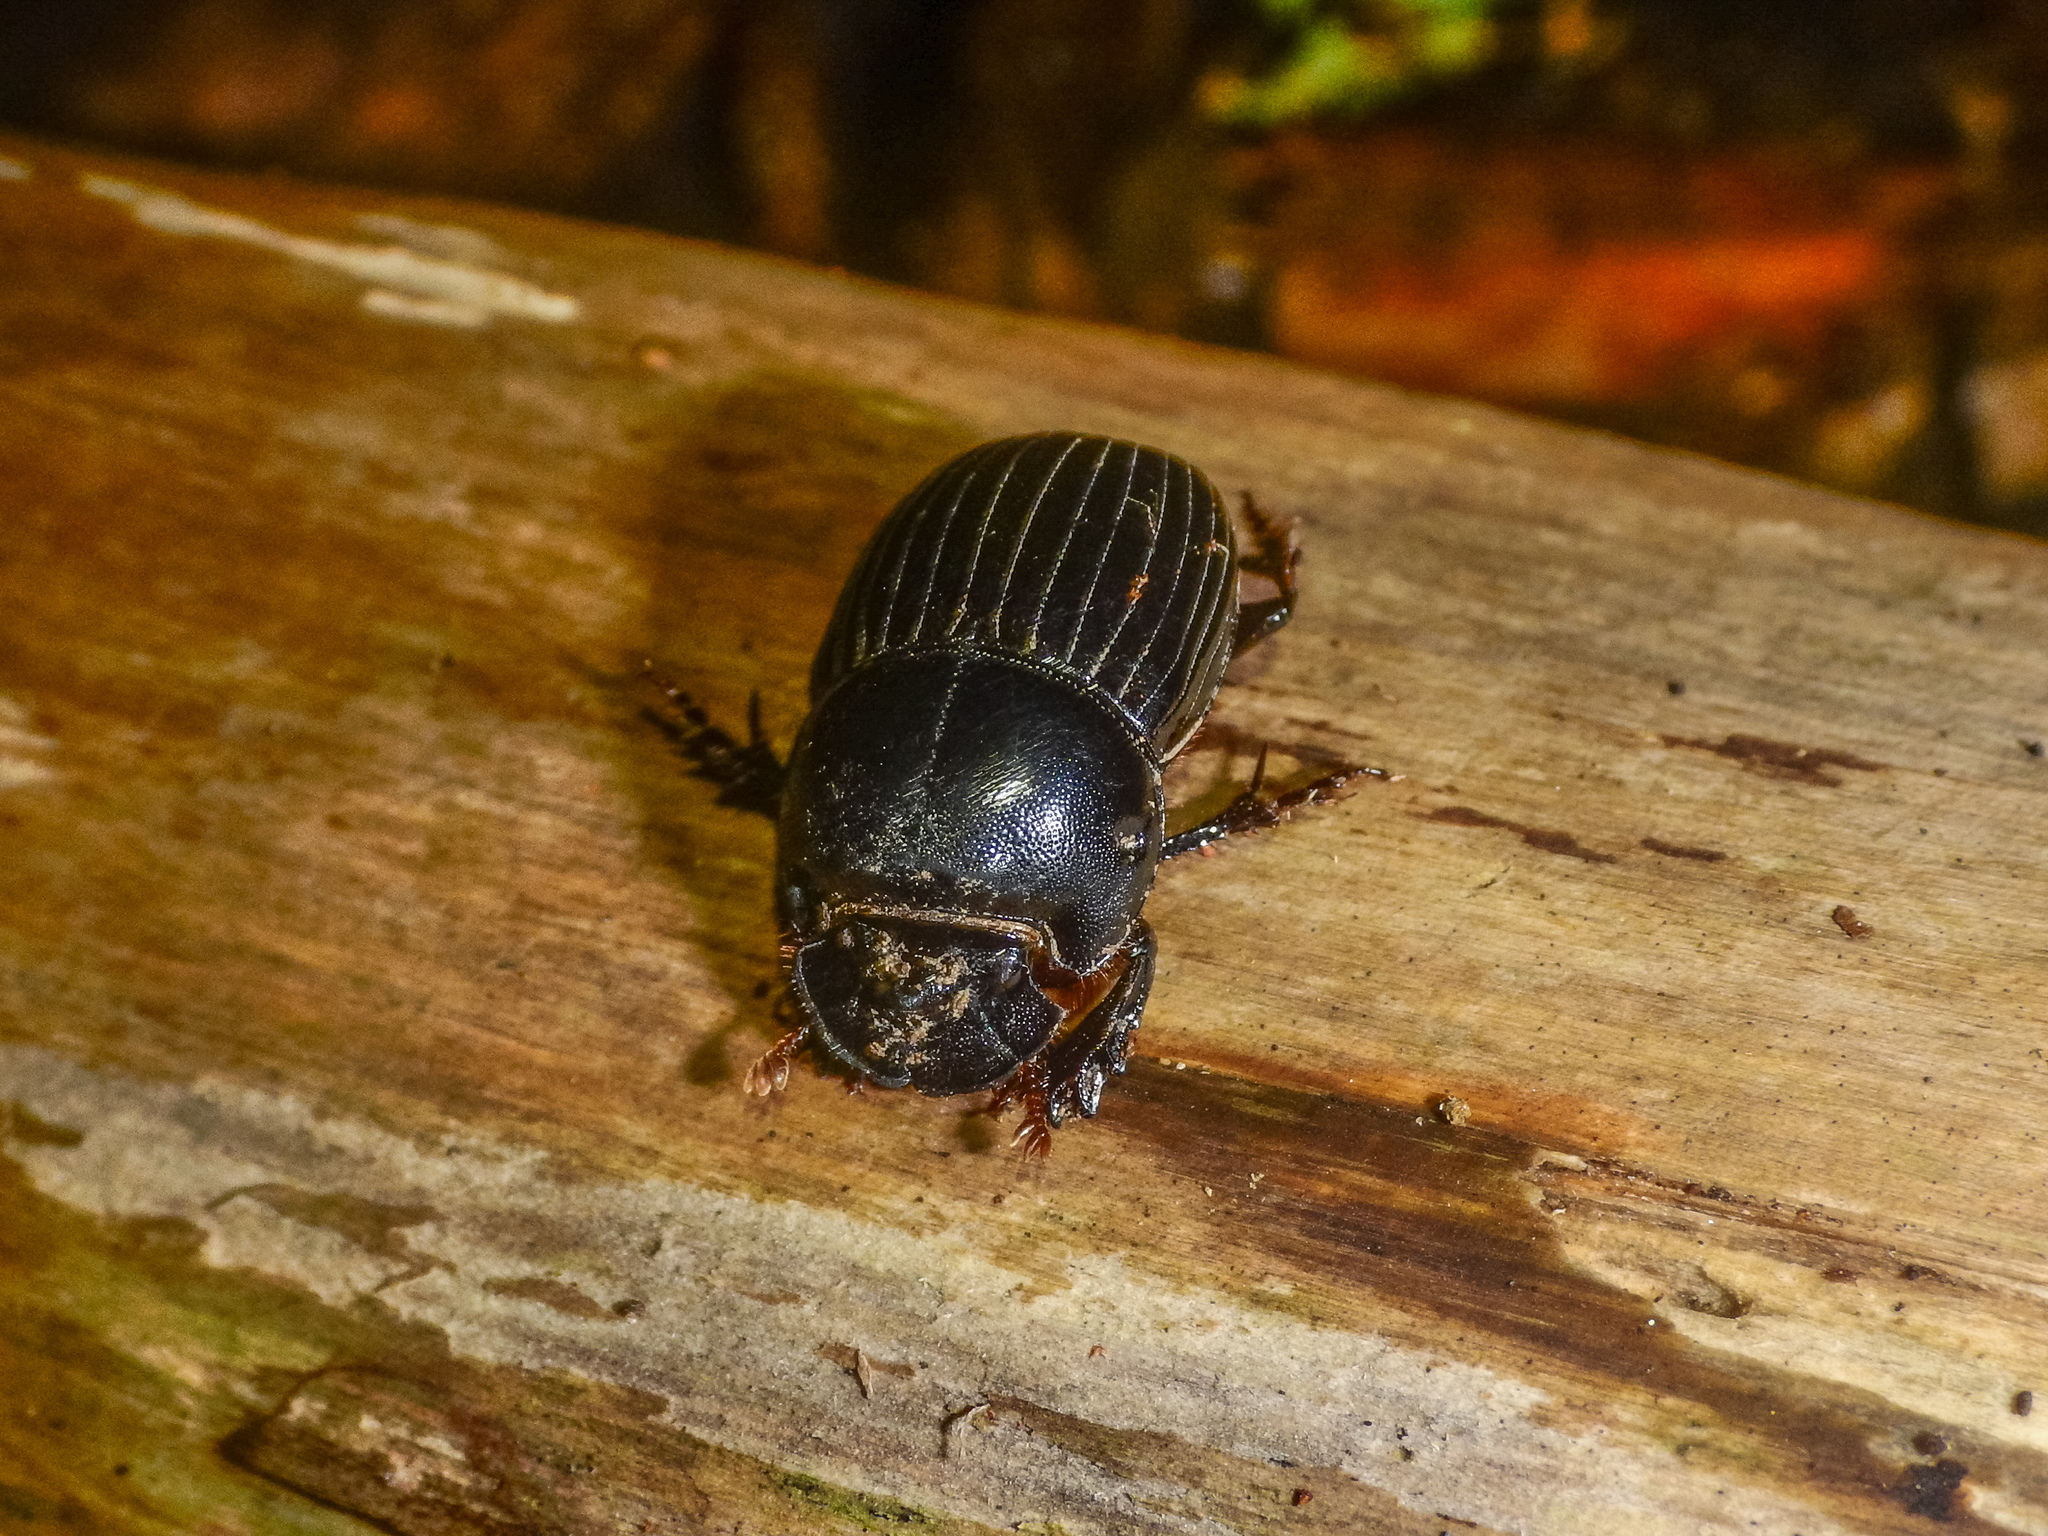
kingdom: Animalia
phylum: Arthropoda
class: Insecta
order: Coleoptera
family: Scarabaeidae
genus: Copris
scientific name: Copris incertus
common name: Uncertain dung beetle
